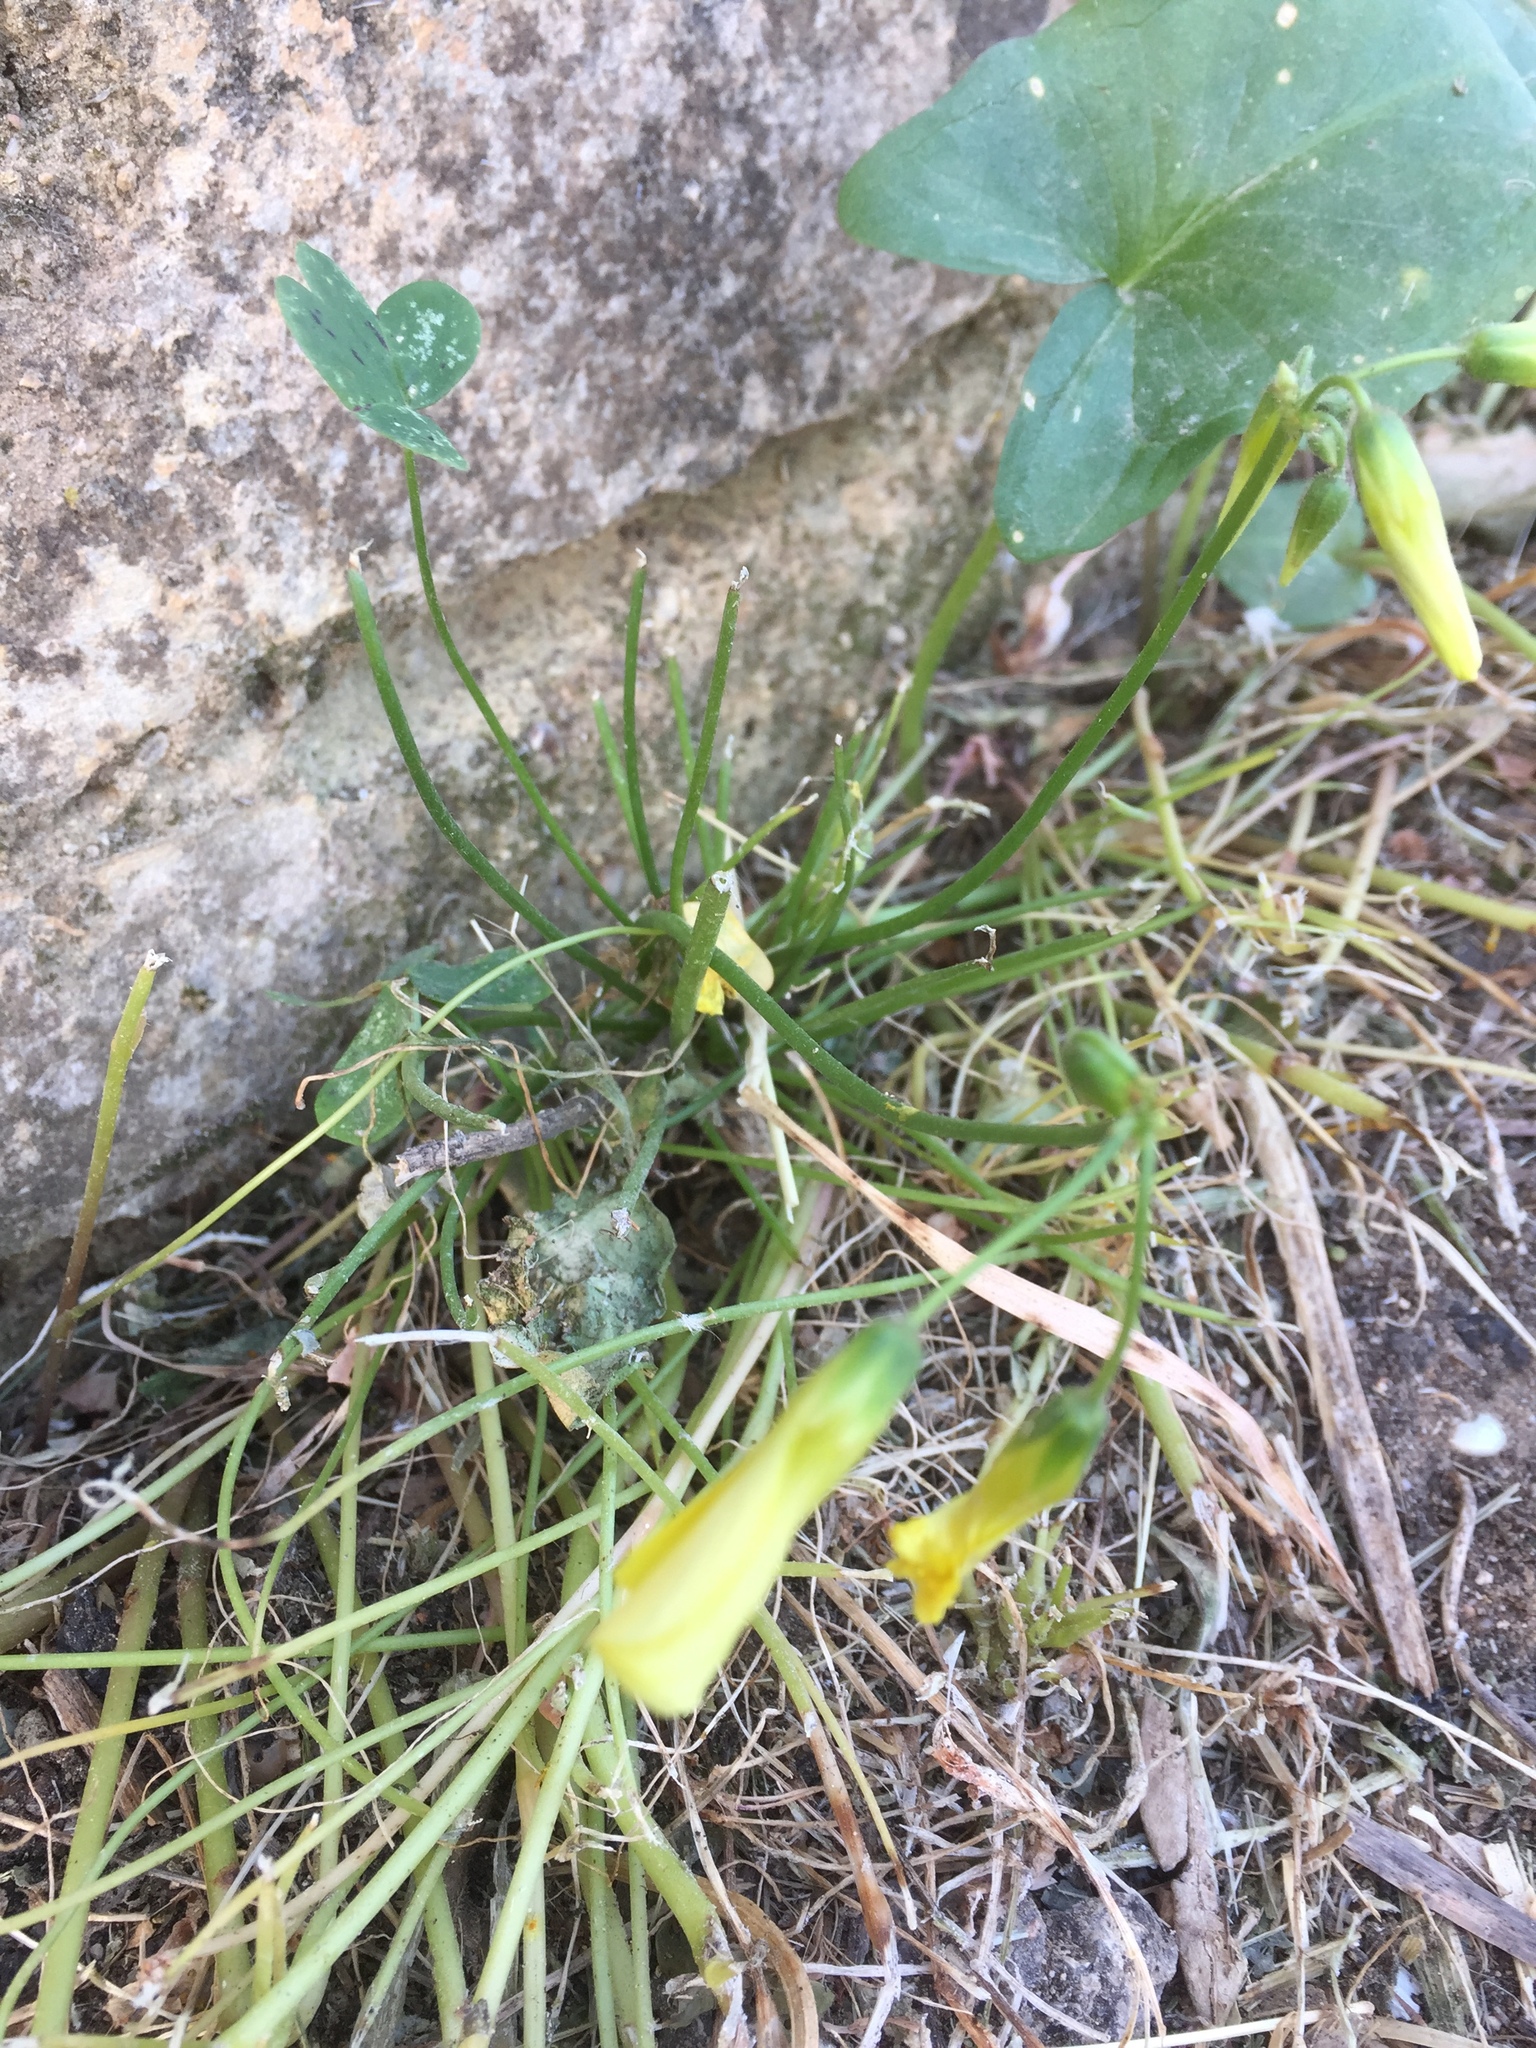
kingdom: Plantae
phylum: Tracheophyta
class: Magnoliopsida
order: Oxalidales
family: Oxalidaceae
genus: Oxalis
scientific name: Oxalis pes-caprae
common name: Bermuda-buttercup
